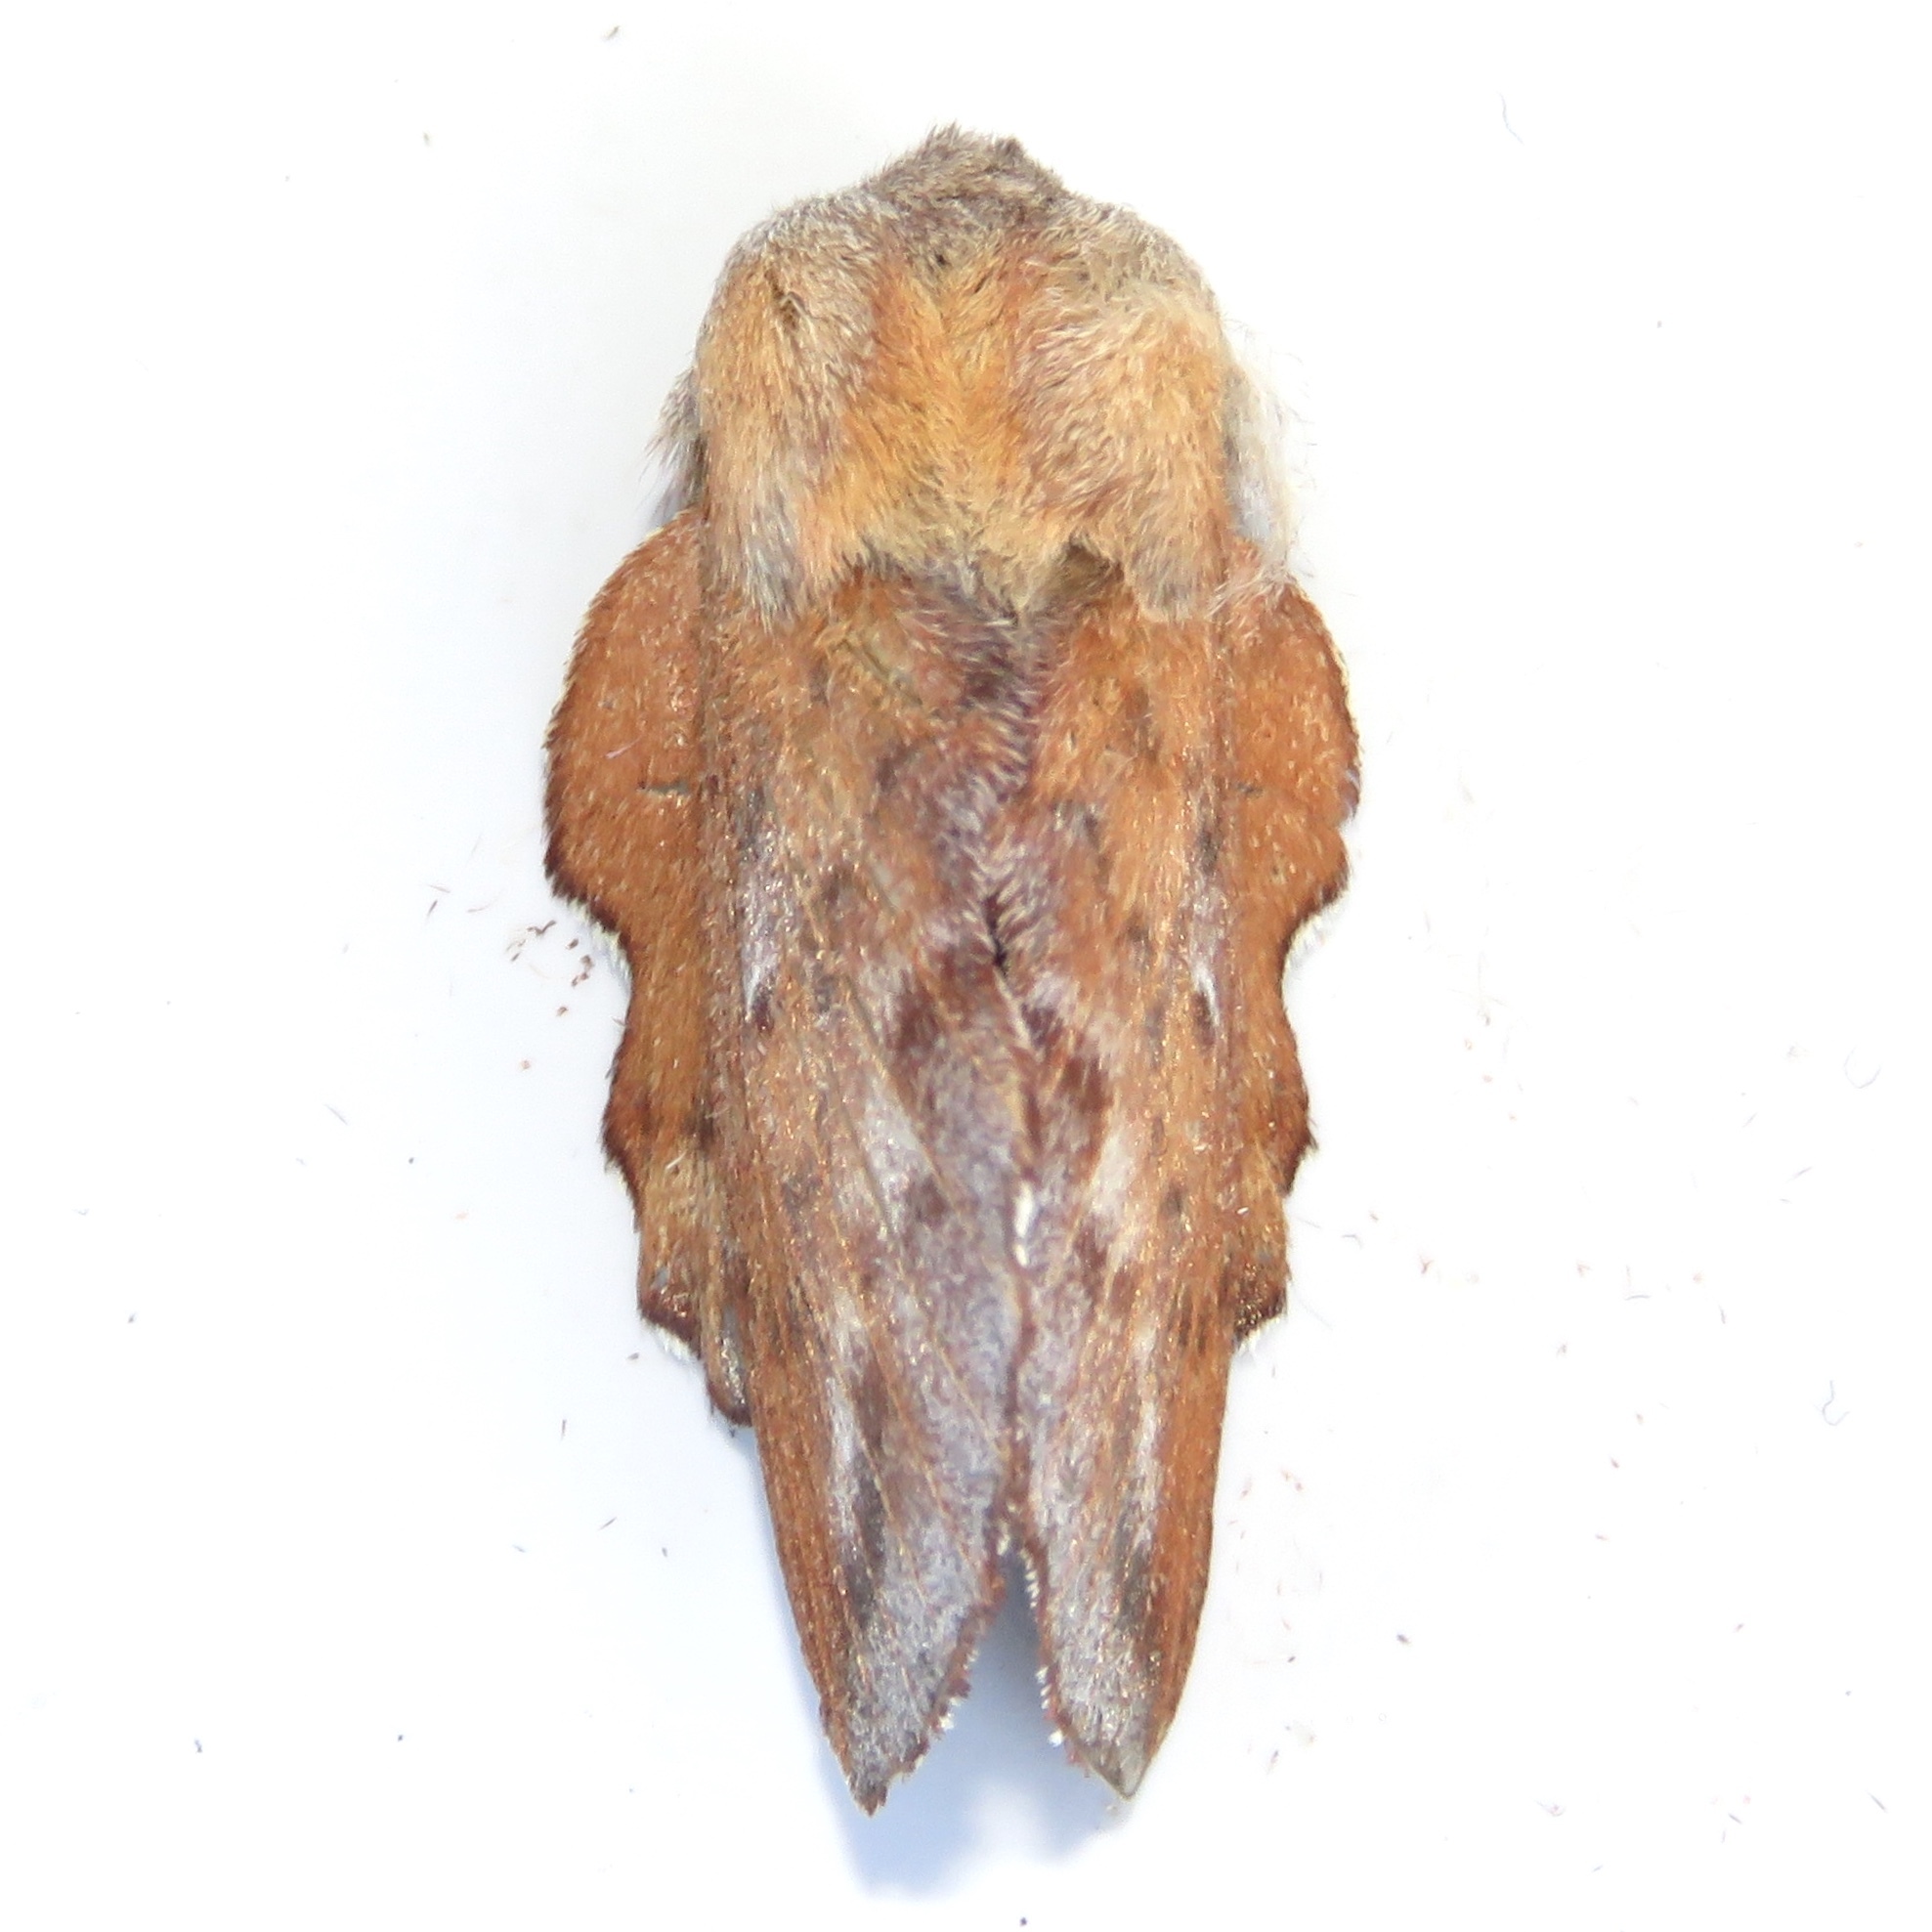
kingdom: Animalia
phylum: Arthropoda
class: Insecta
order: Lepidoptera
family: Lasiocampidae
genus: Phyllodesma
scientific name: Phyllodesma americana
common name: American lappet moth
